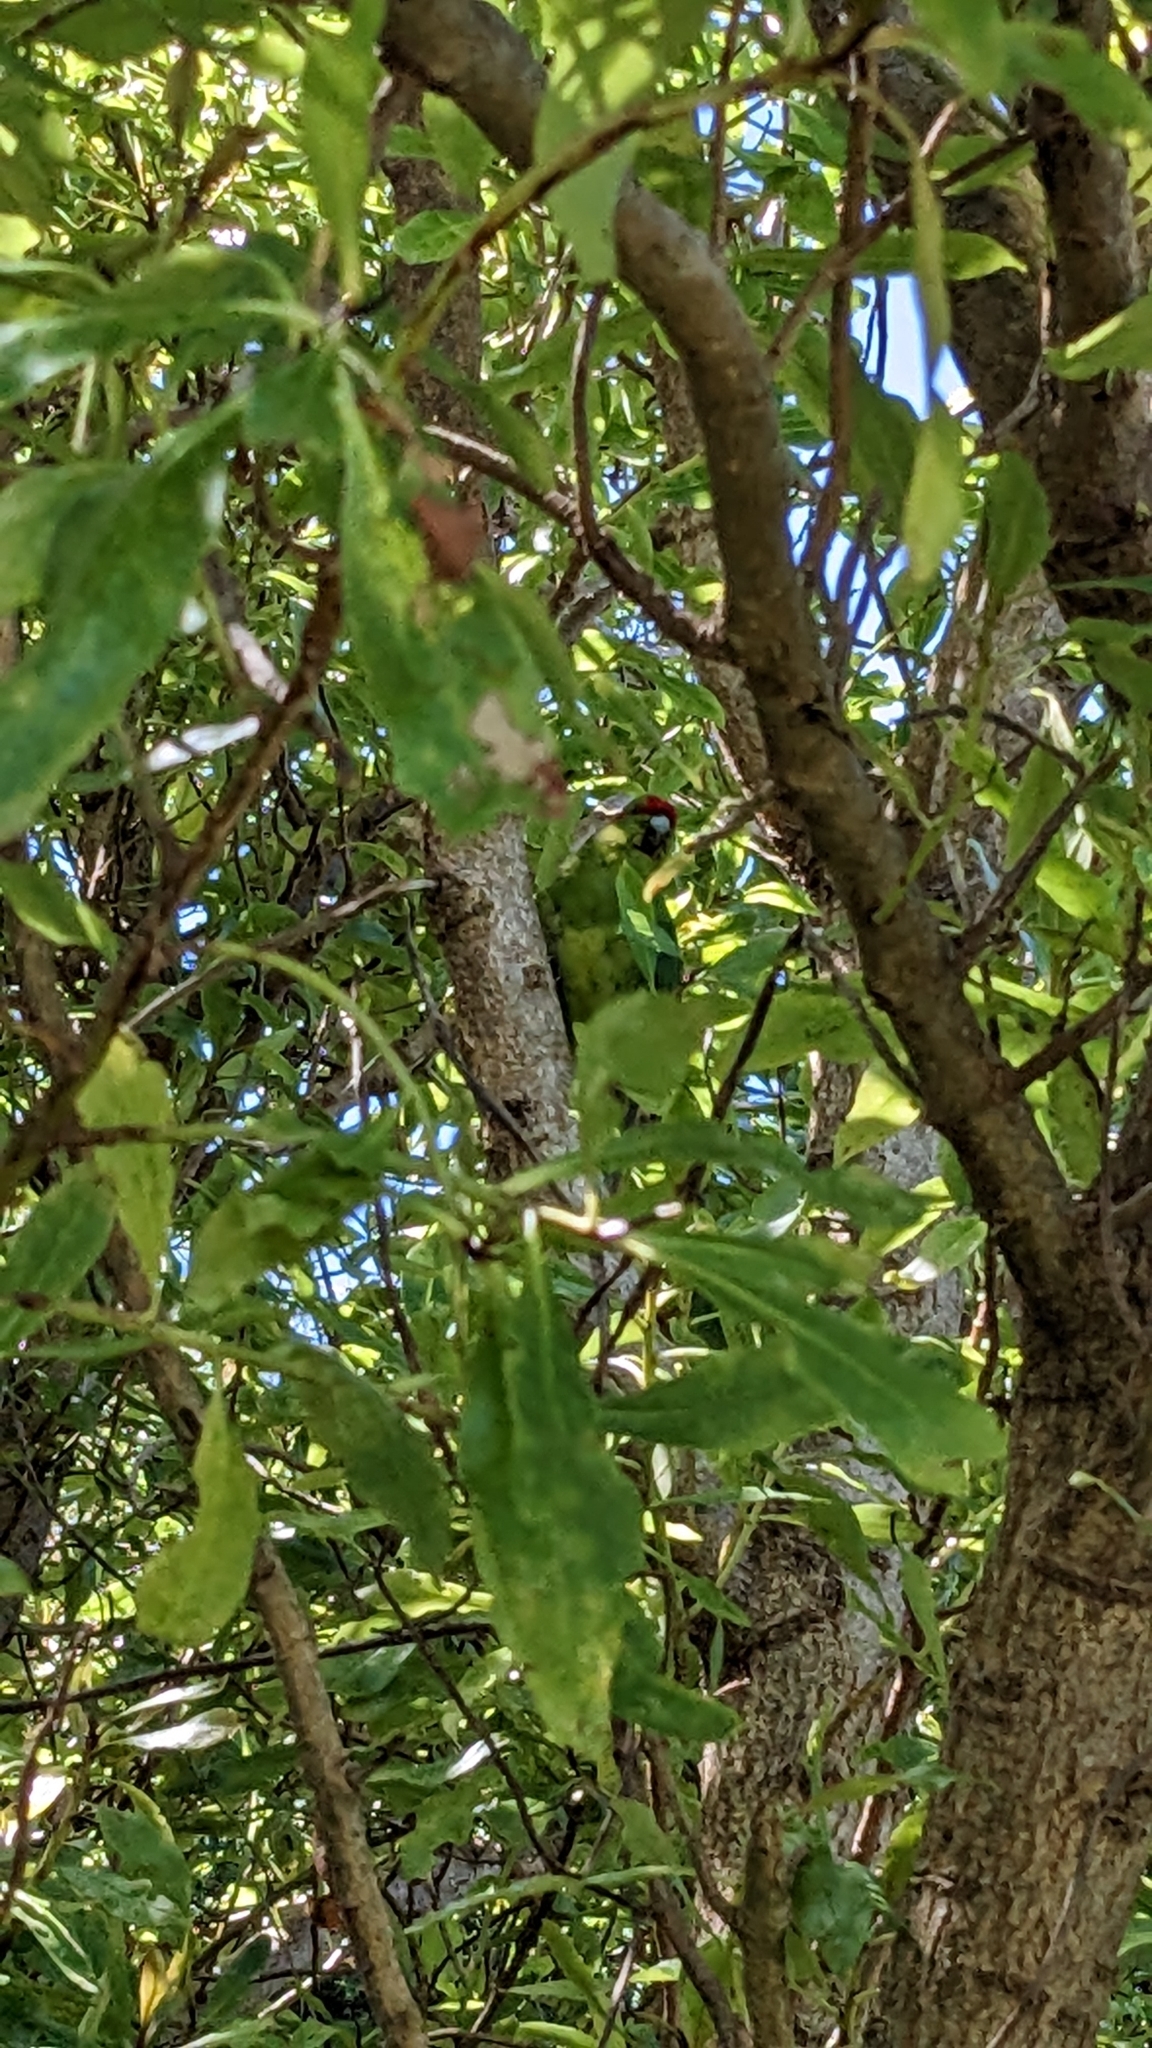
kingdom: Animalia
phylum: Chordata
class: Aves
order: Psittaciformes
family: Psittacidae
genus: Cyanoramphus
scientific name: Cyanoramphus novaezelandiae
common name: Red-fronted parakeet
